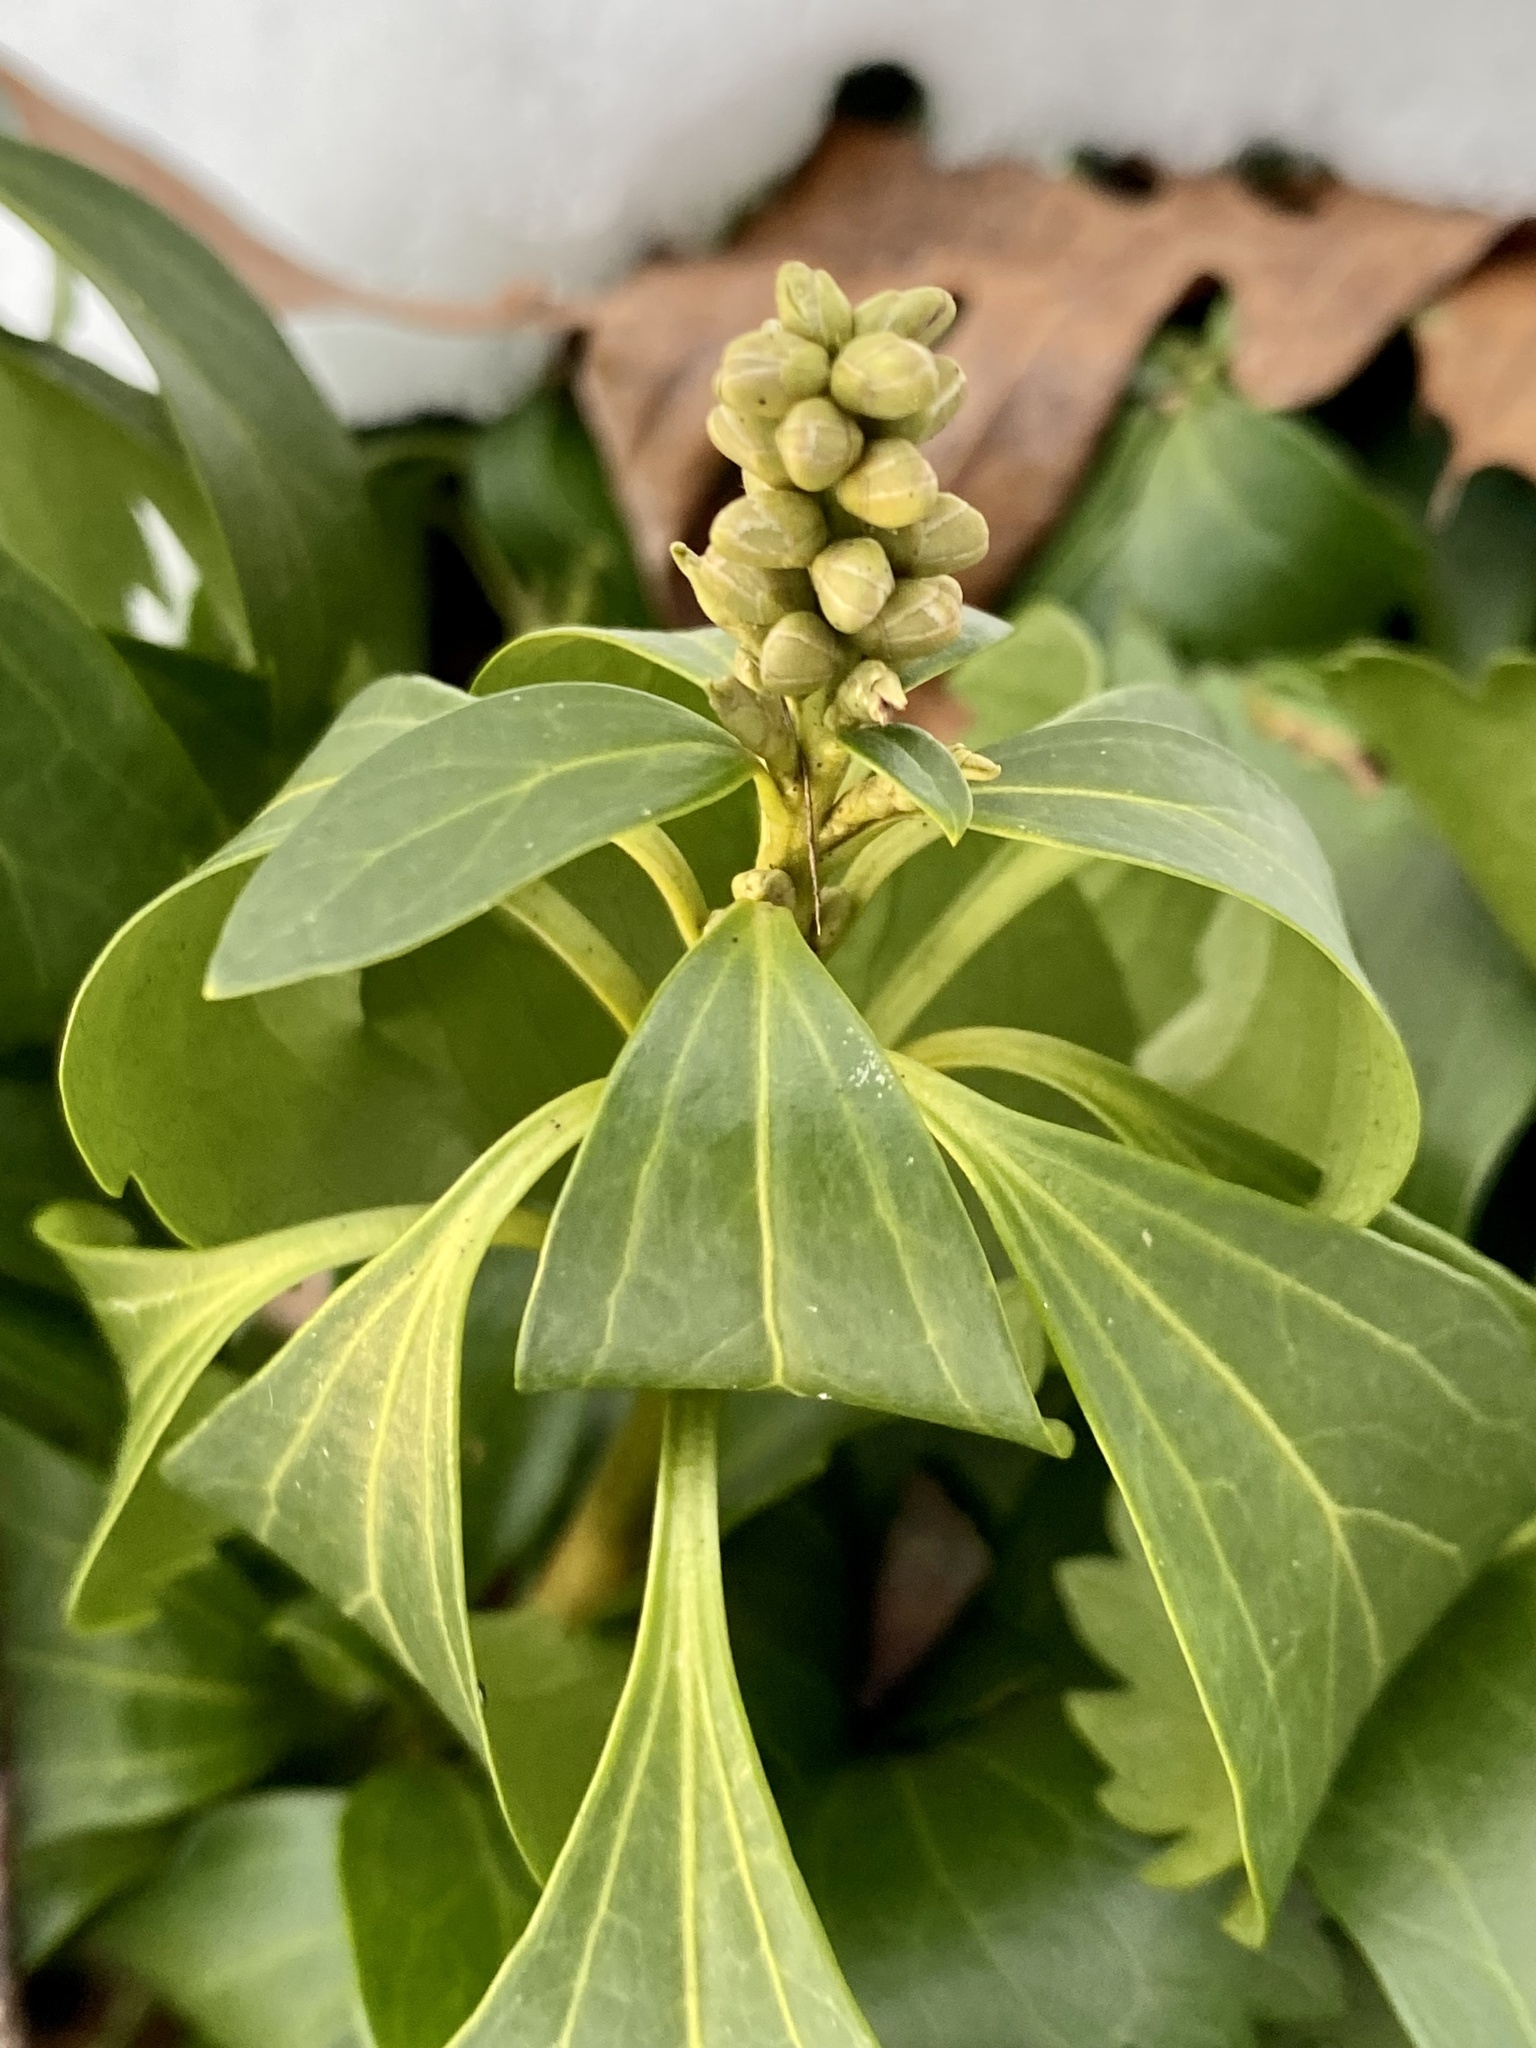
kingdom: Plantae
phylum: Tracheophyta
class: Magnoliopsida
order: Buxales
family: Buxaceae
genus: Pachysandra
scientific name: Pachysandra terminalis
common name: Japanese pachysandra
